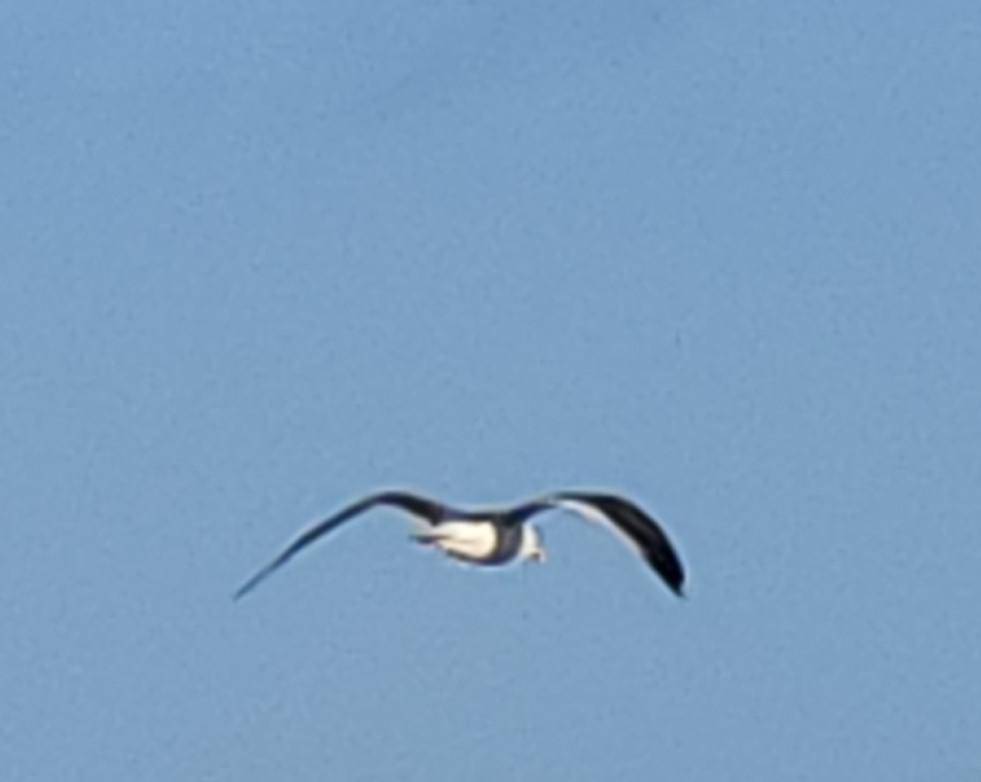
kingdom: Animalia
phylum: Chordata
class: Aves
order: Charadriiformes
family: Laridae
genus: Larus
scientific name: Larus occidentalis
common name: Western gull
